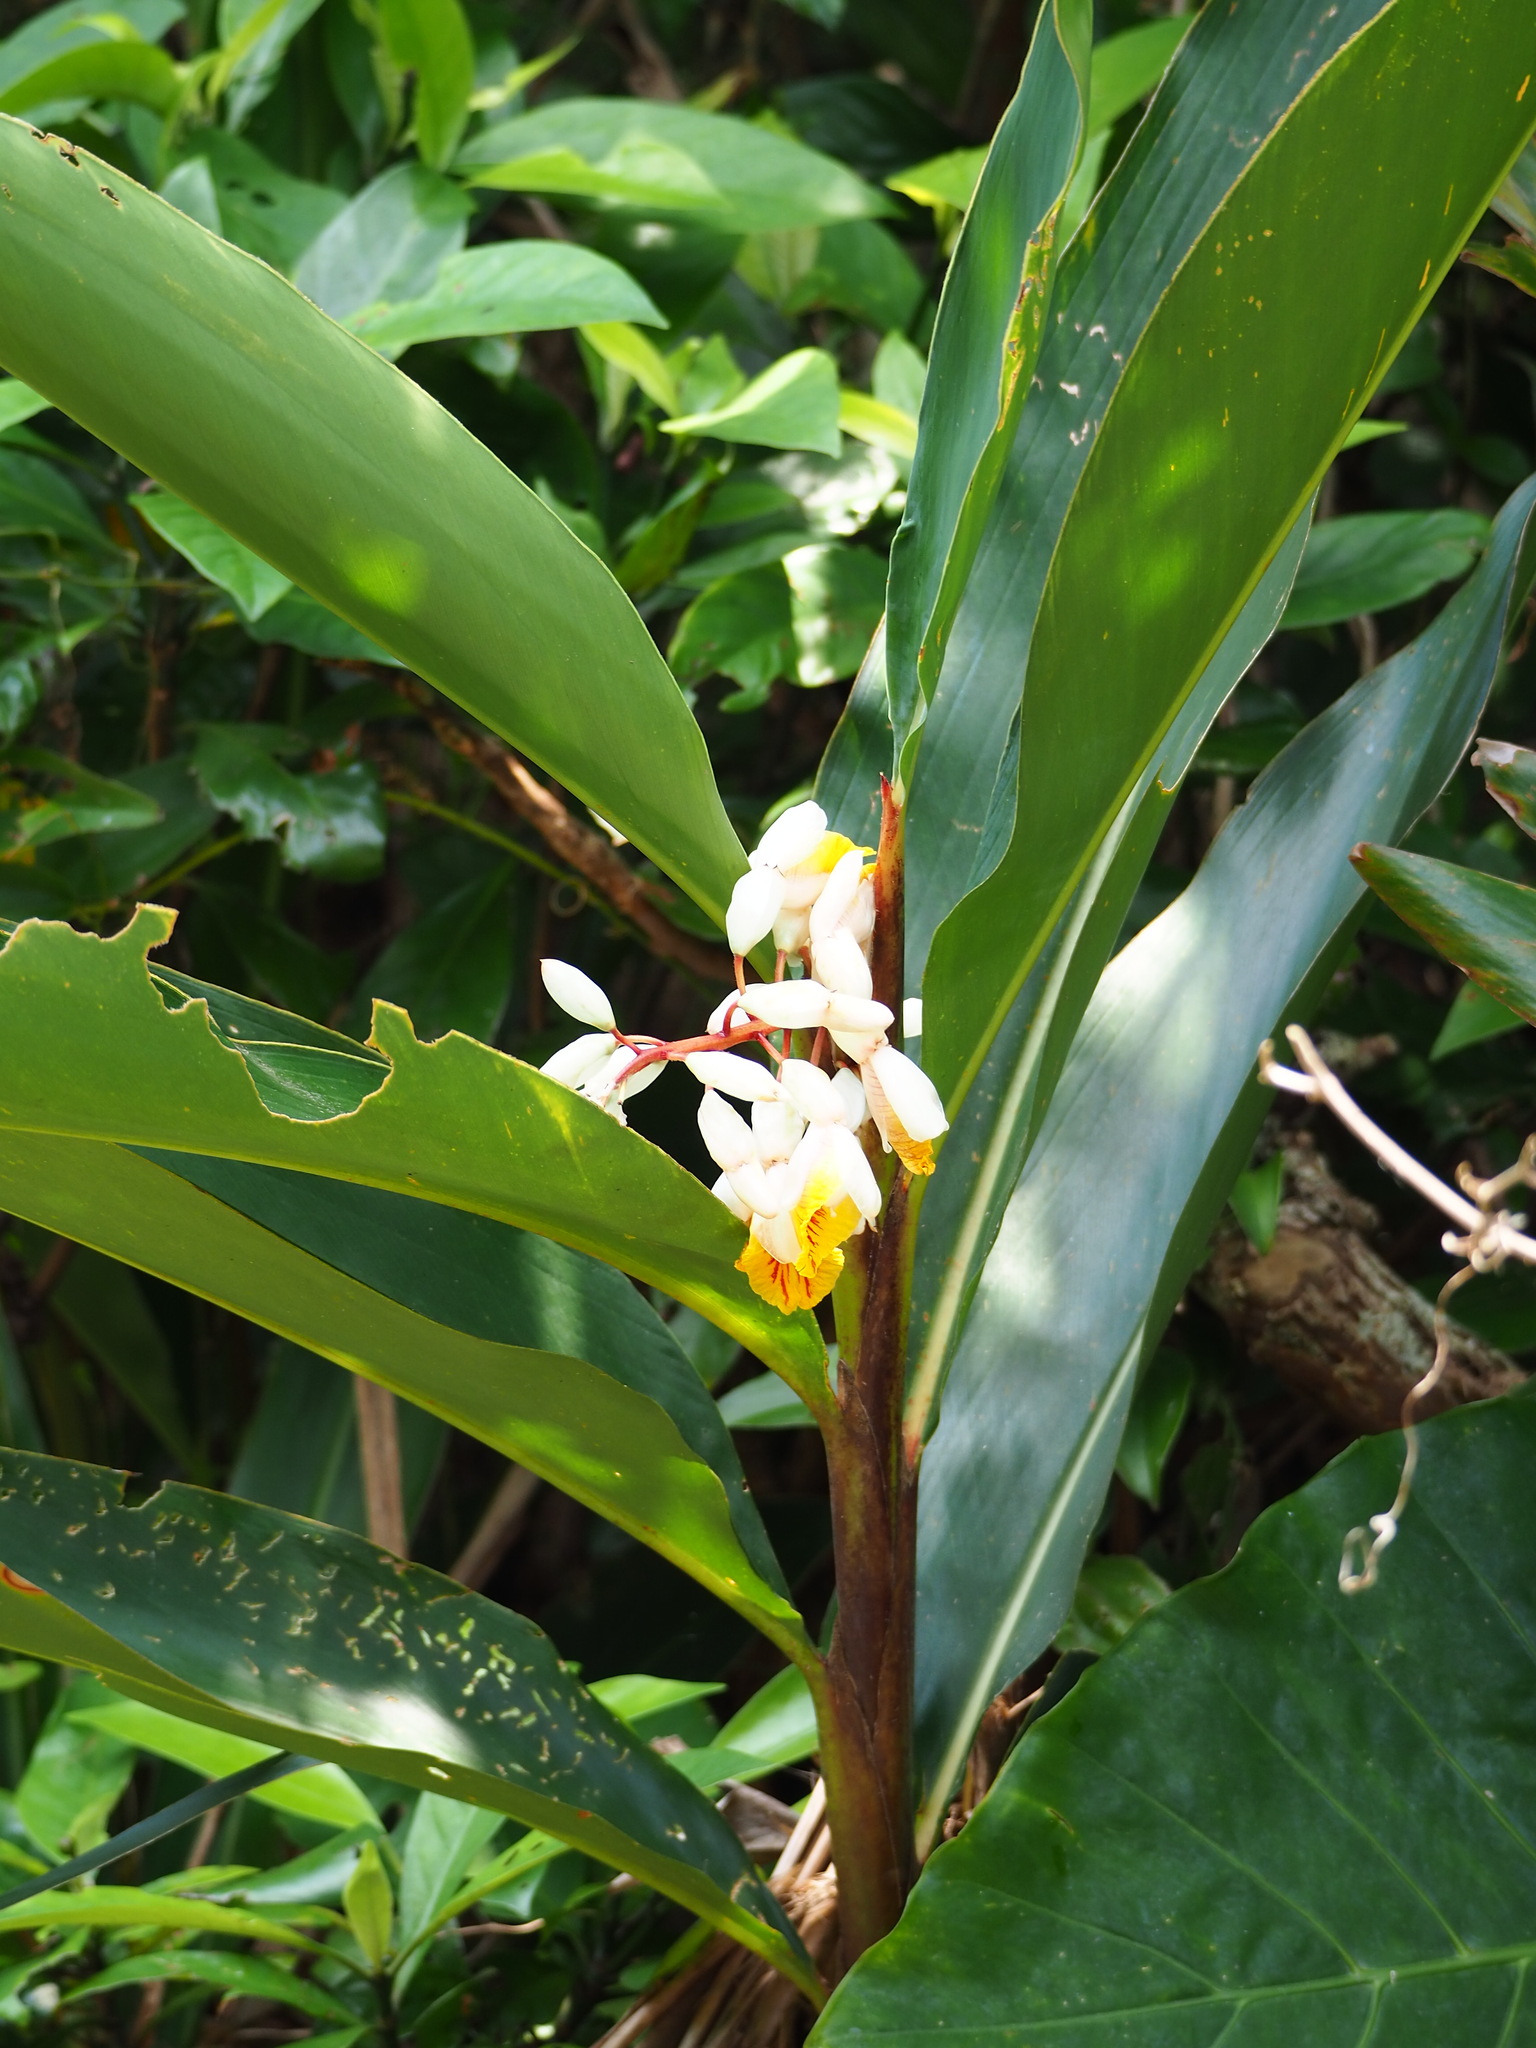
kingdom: Plantae
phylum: Tracheophyta
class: Liliopsida
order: Zingiberales
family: Zingiberaceae
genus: Alpinia
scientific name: Alpinia zerumbet
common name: Shellplant
